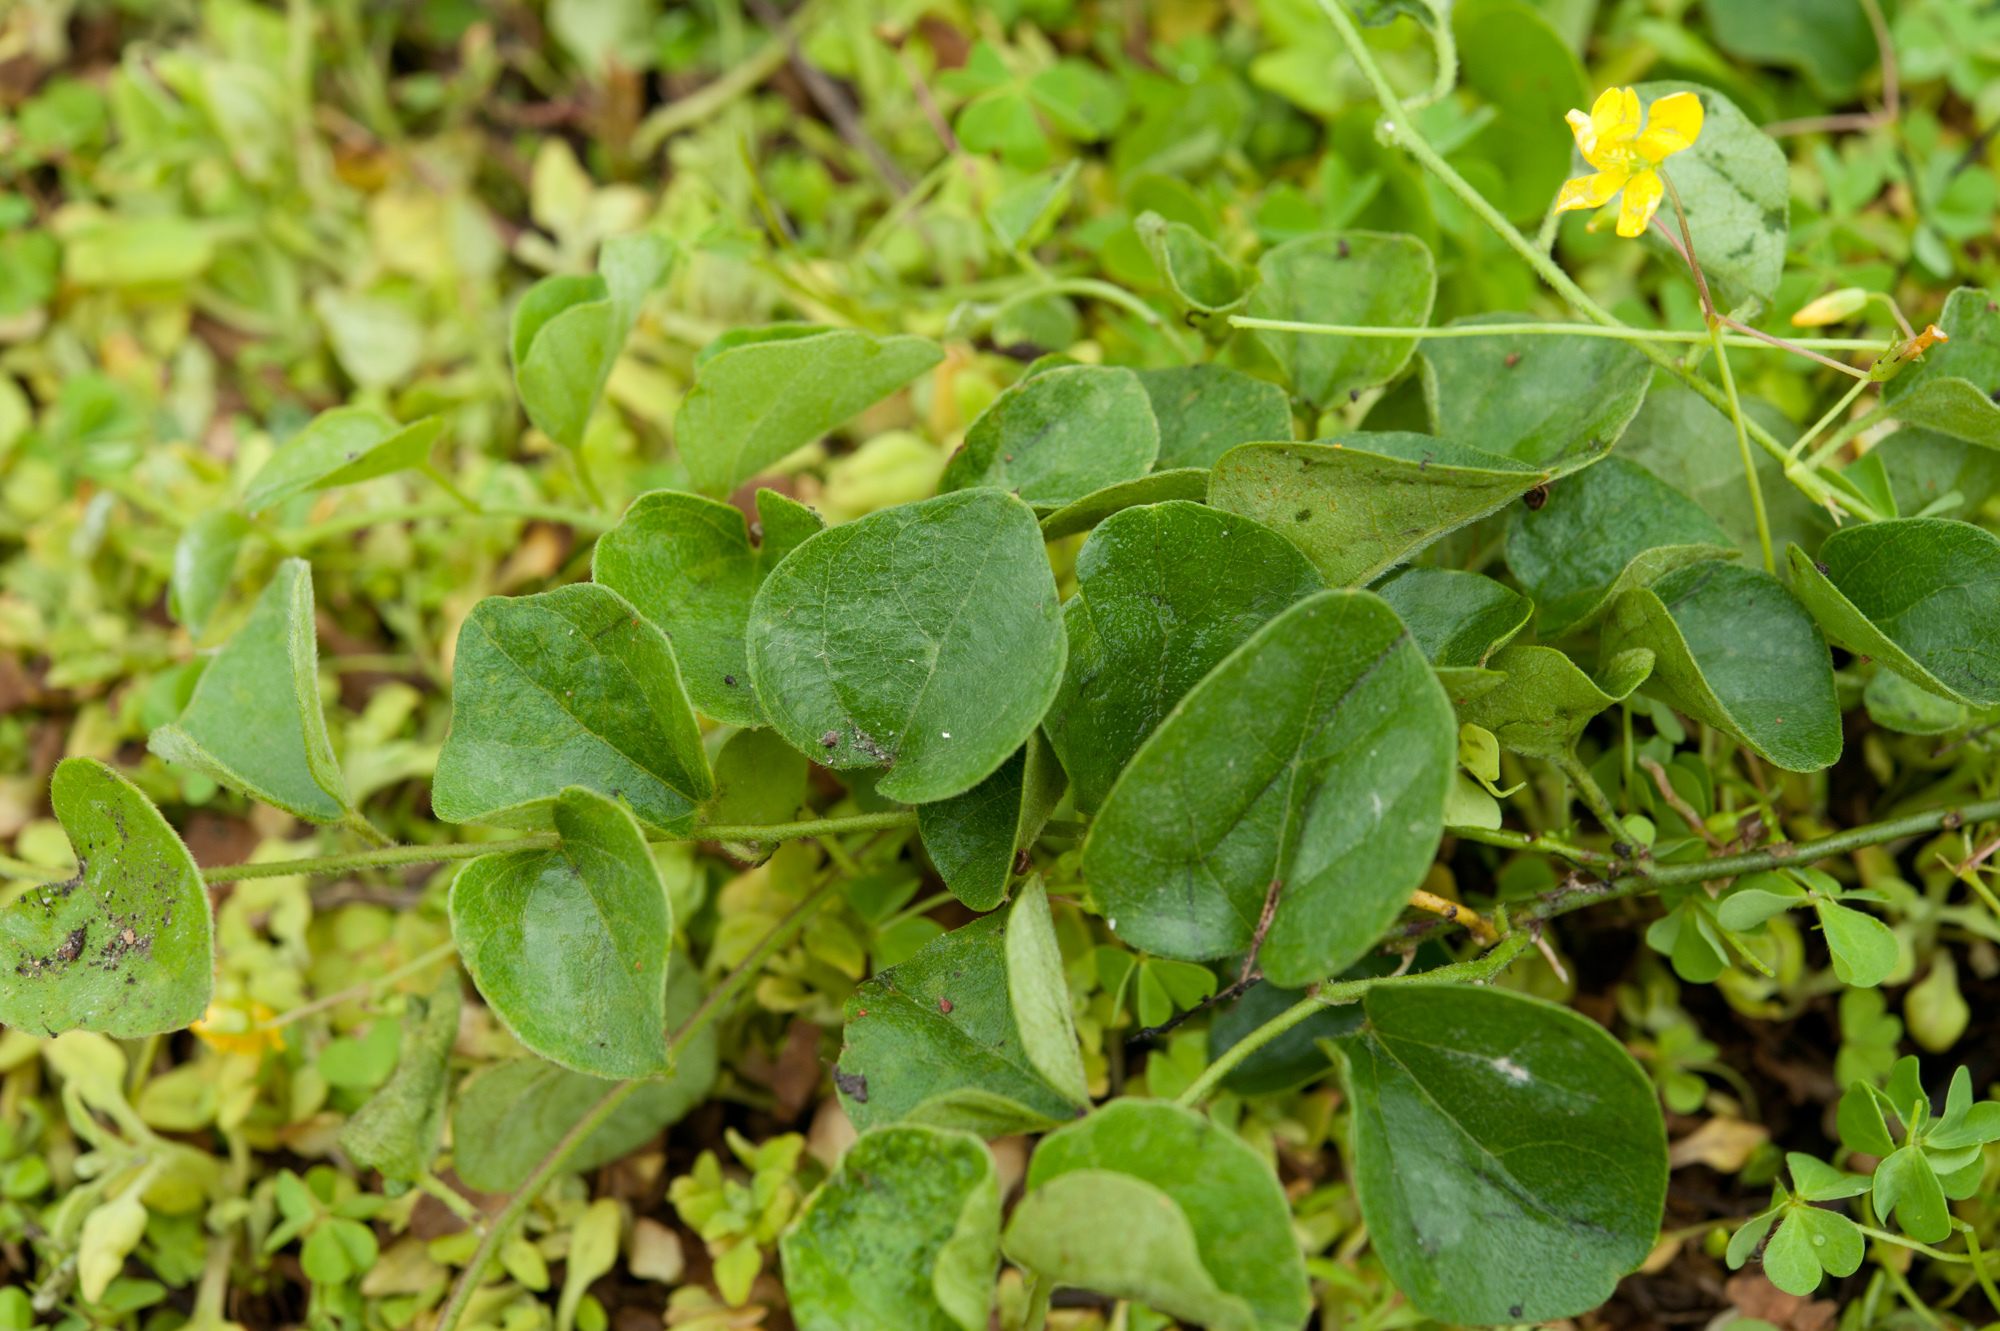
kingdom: Plantae
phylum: Tracheophyta
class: Magnoliopsida
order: Ranunculales
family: Menispermaceae
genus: Cyclea
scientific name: Cyclea gracillima
